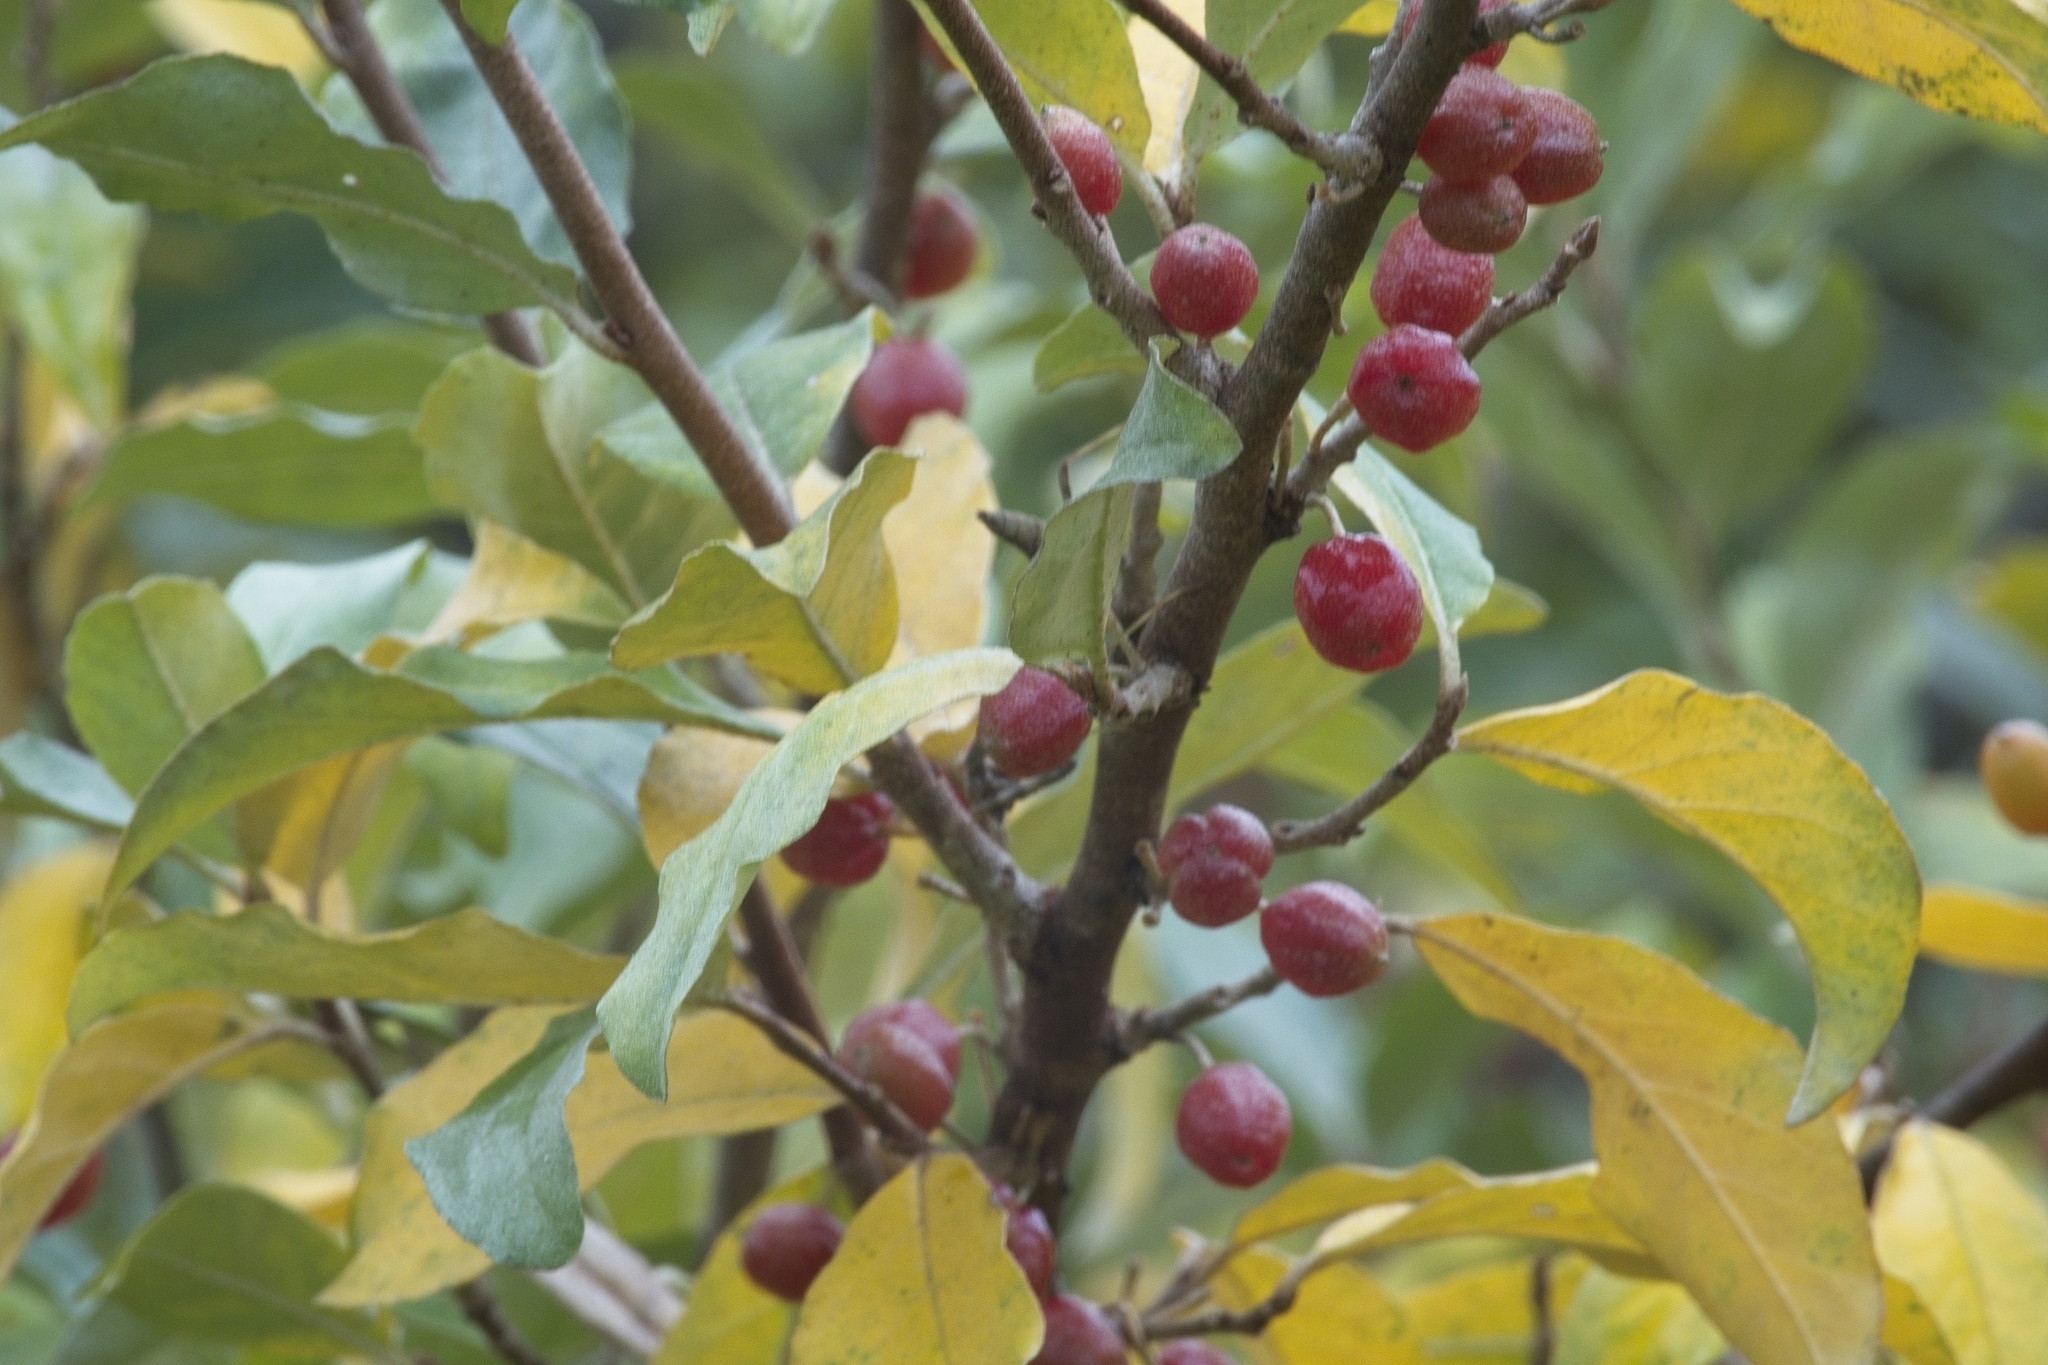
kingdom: Plantae
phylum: Tracheophyta
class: Magnoliopsida
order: Rosales
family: Elaeagnaceae
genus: Elaeagnus
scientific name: Elaeagnus umbellata
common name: Autumn olive
